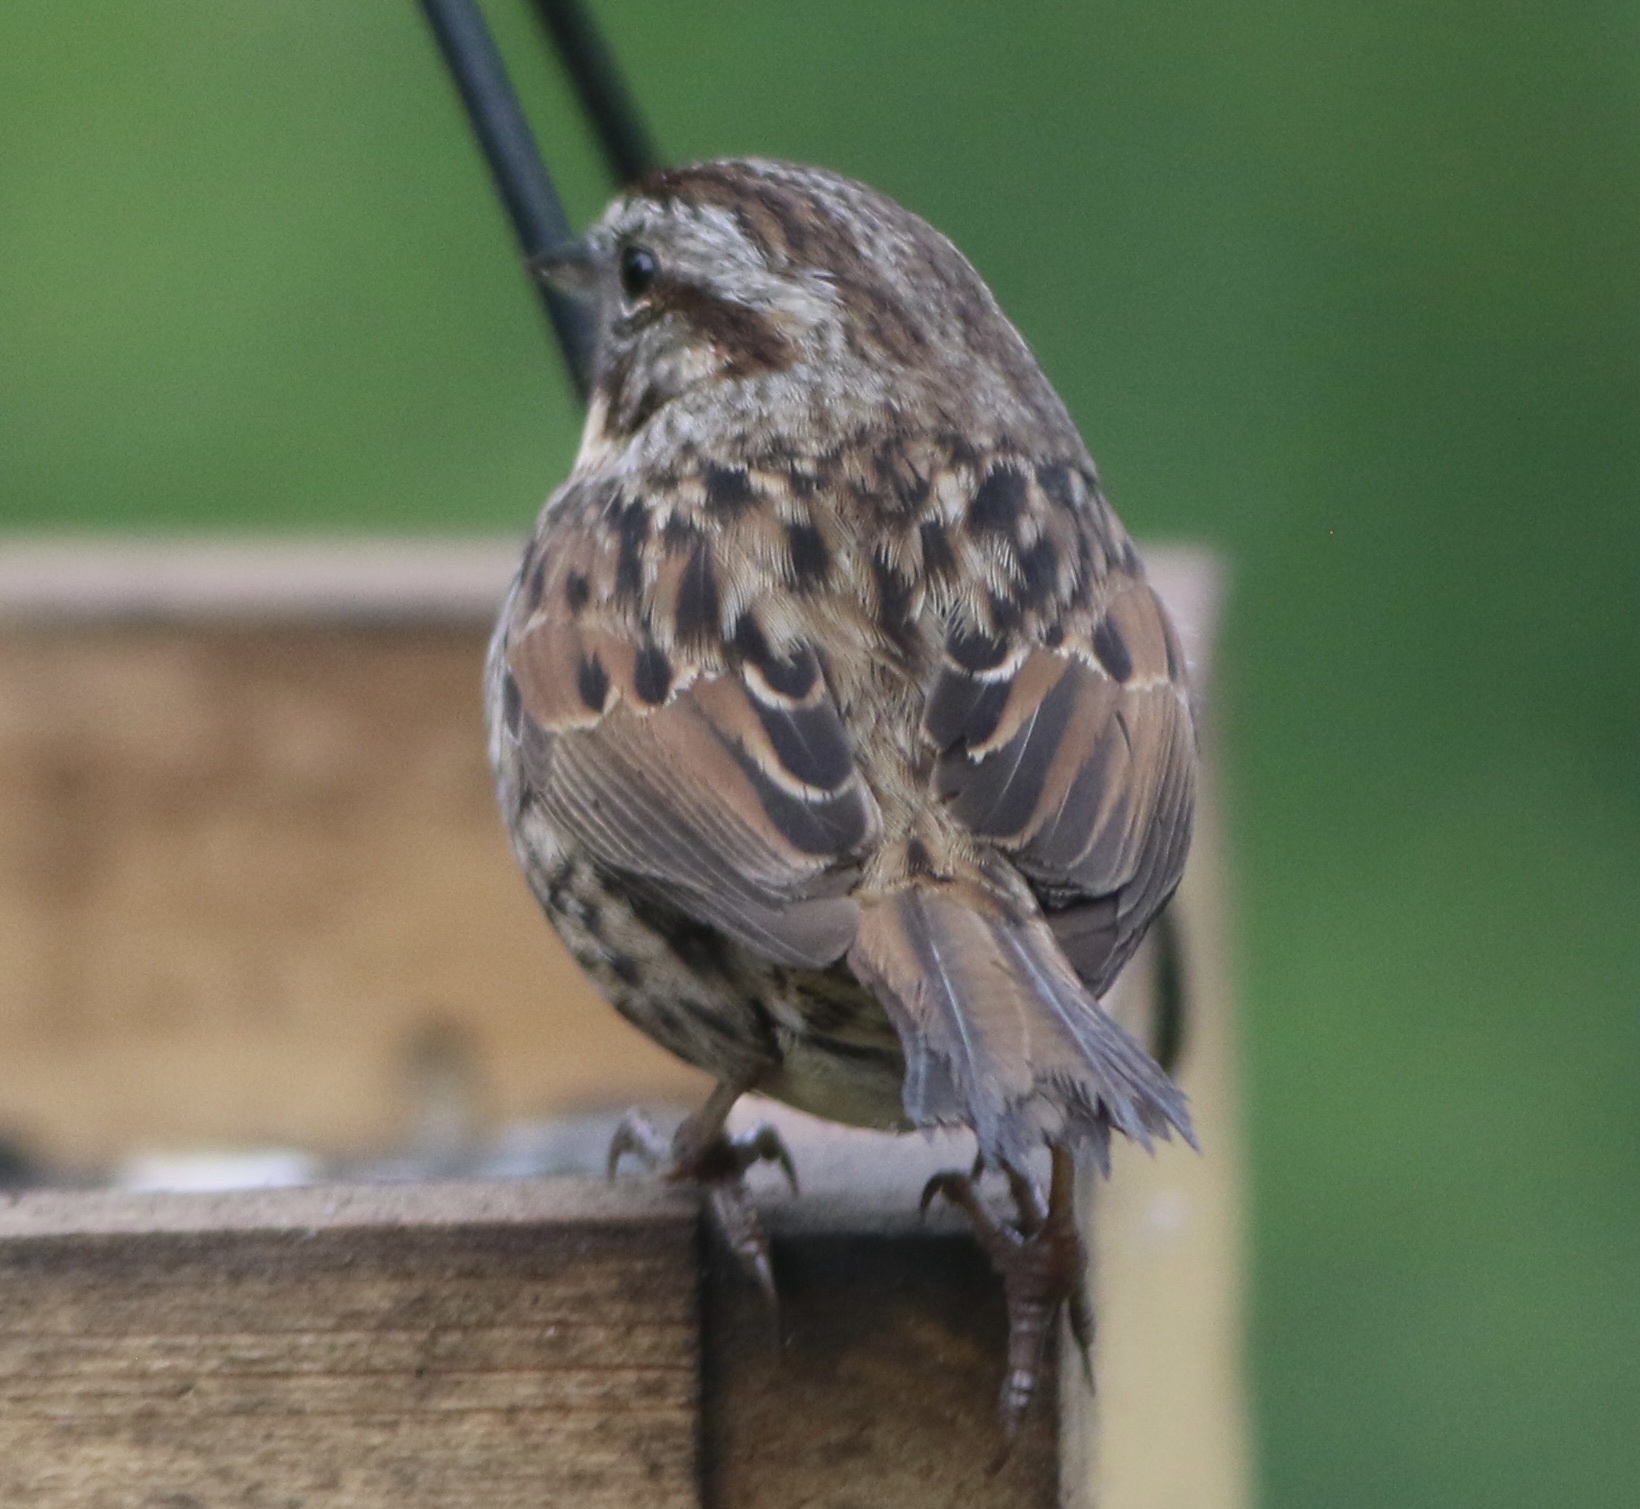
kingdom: Animalia
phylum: Chordata
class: Aves
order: Passeriformes
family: Passerellidae
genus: Melospiza
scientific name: Melospiza melodia
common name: Song sparrow
